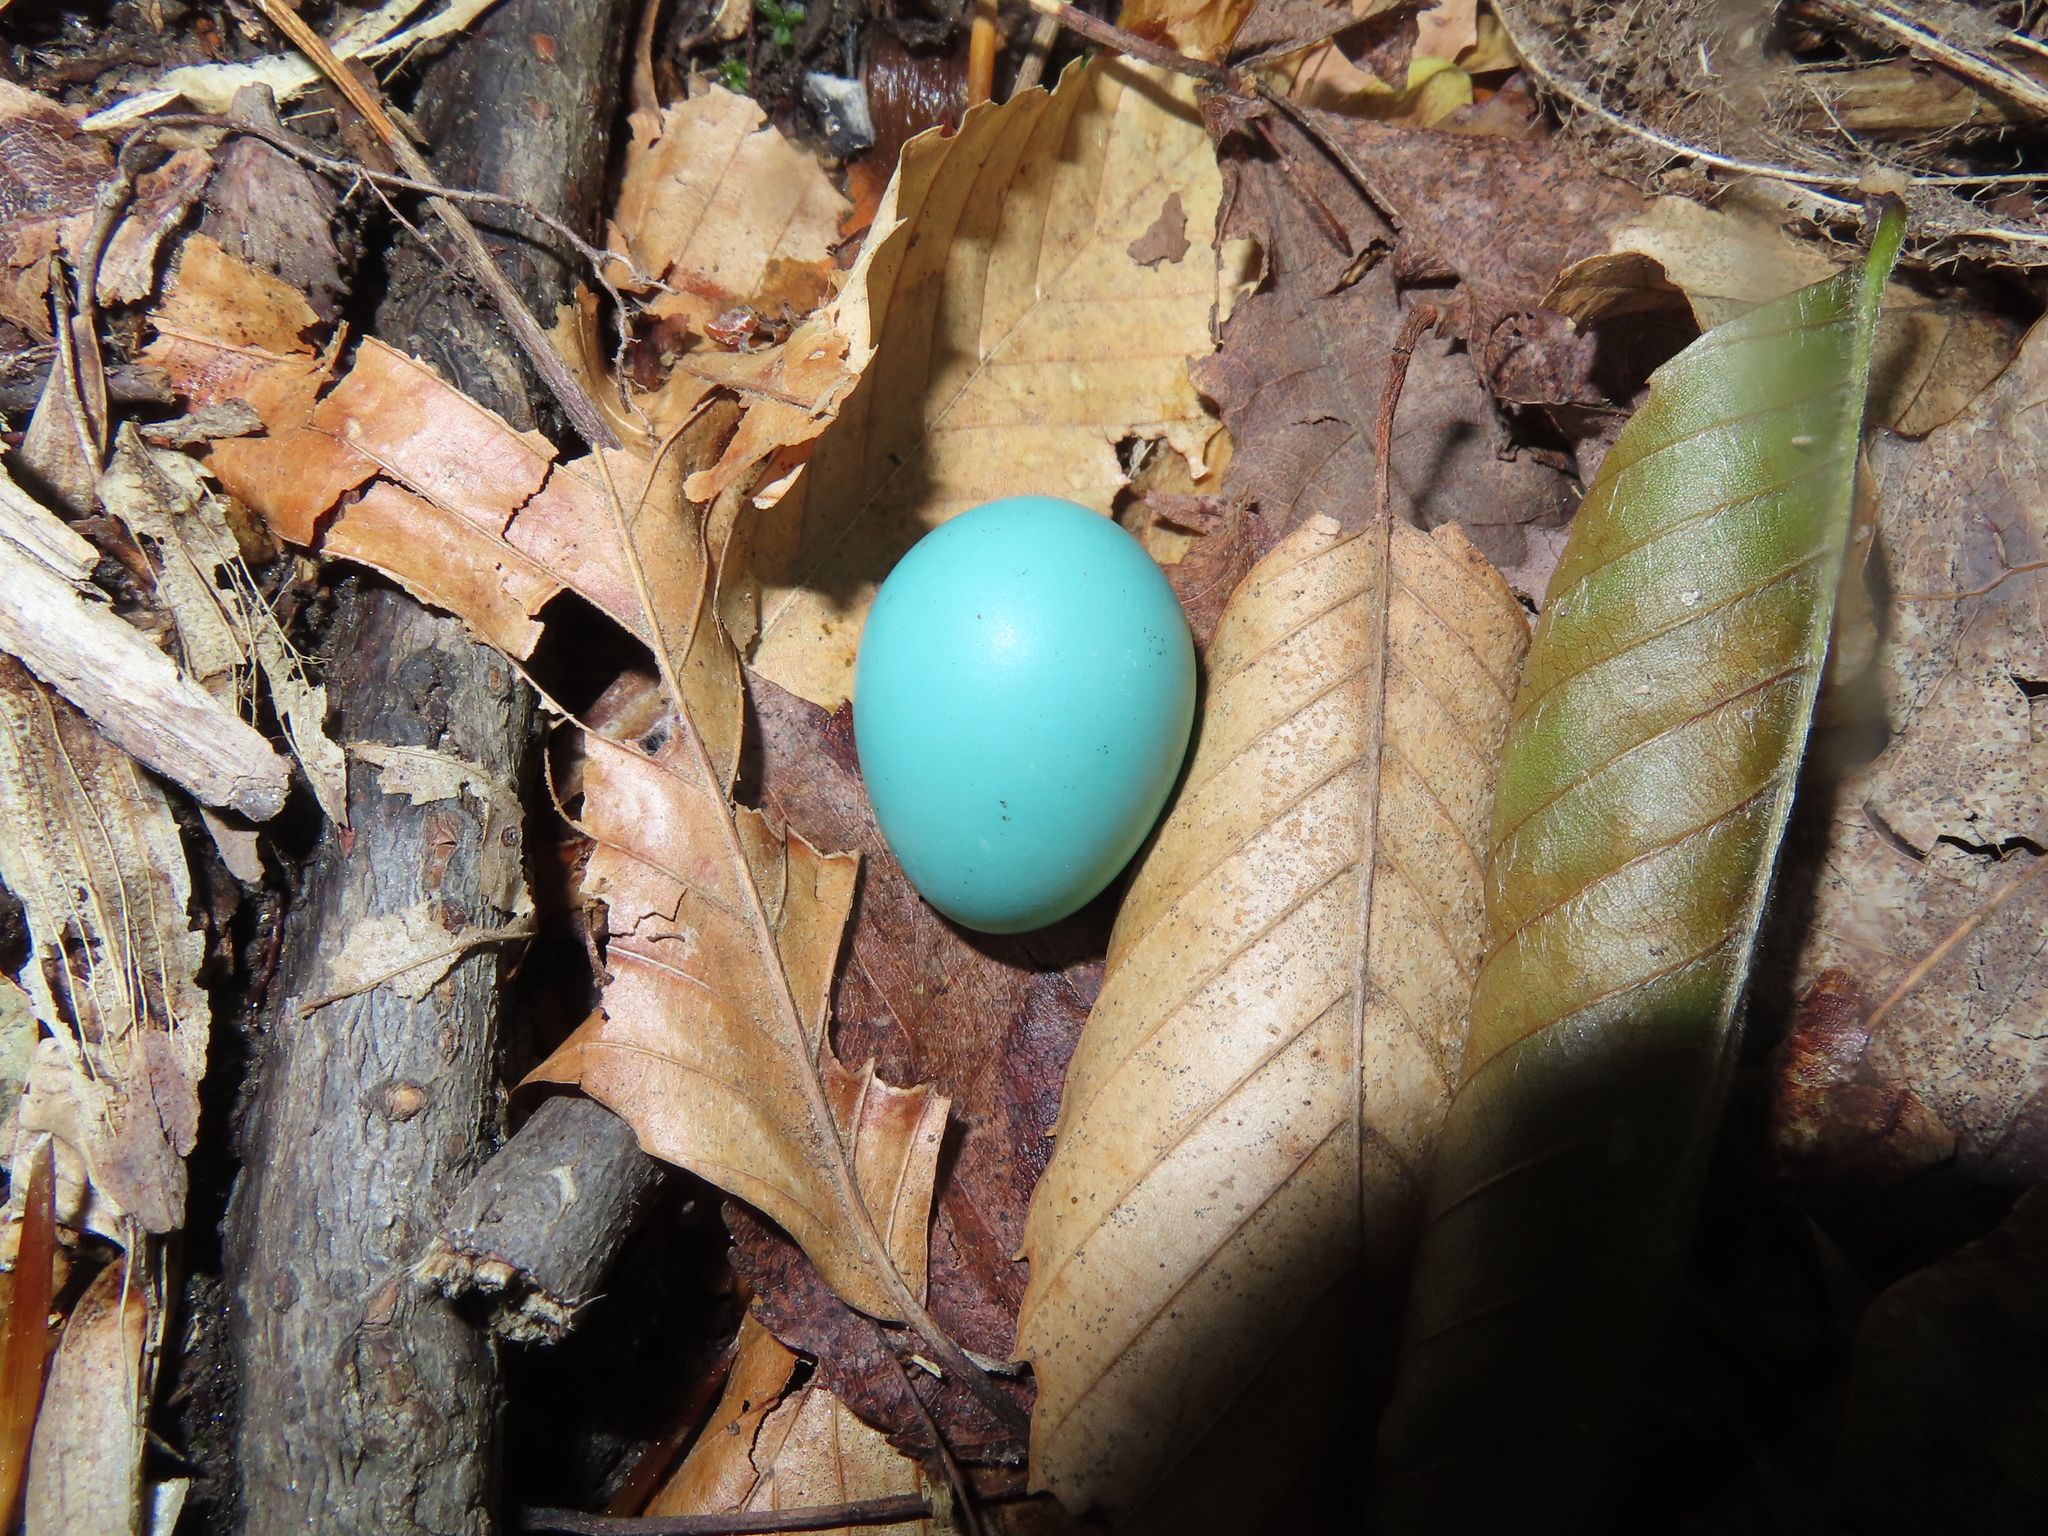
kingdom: Animalia
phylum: Chordata
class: Aves
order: Passeriformes
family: Turdidae
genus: Turdus
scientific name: Turdus migratorius
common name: American robin
